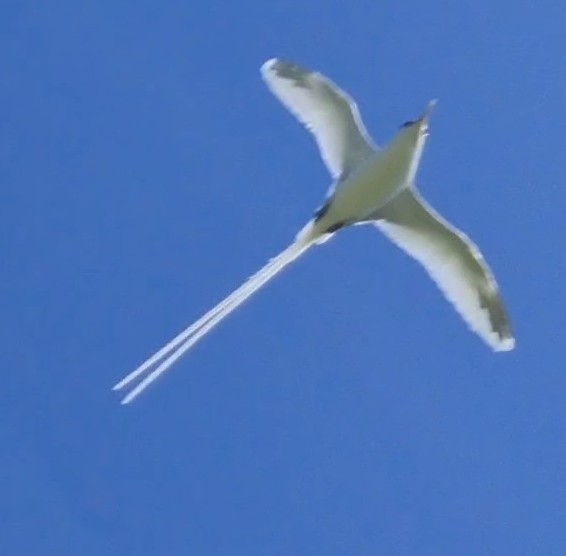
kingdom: Animalia
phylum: Chordata
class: Aves
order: Phaethontiformes
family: Phaethontidae
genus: Phaethon
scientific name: Phaethon lepturus
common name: White-tailed tropicbird
